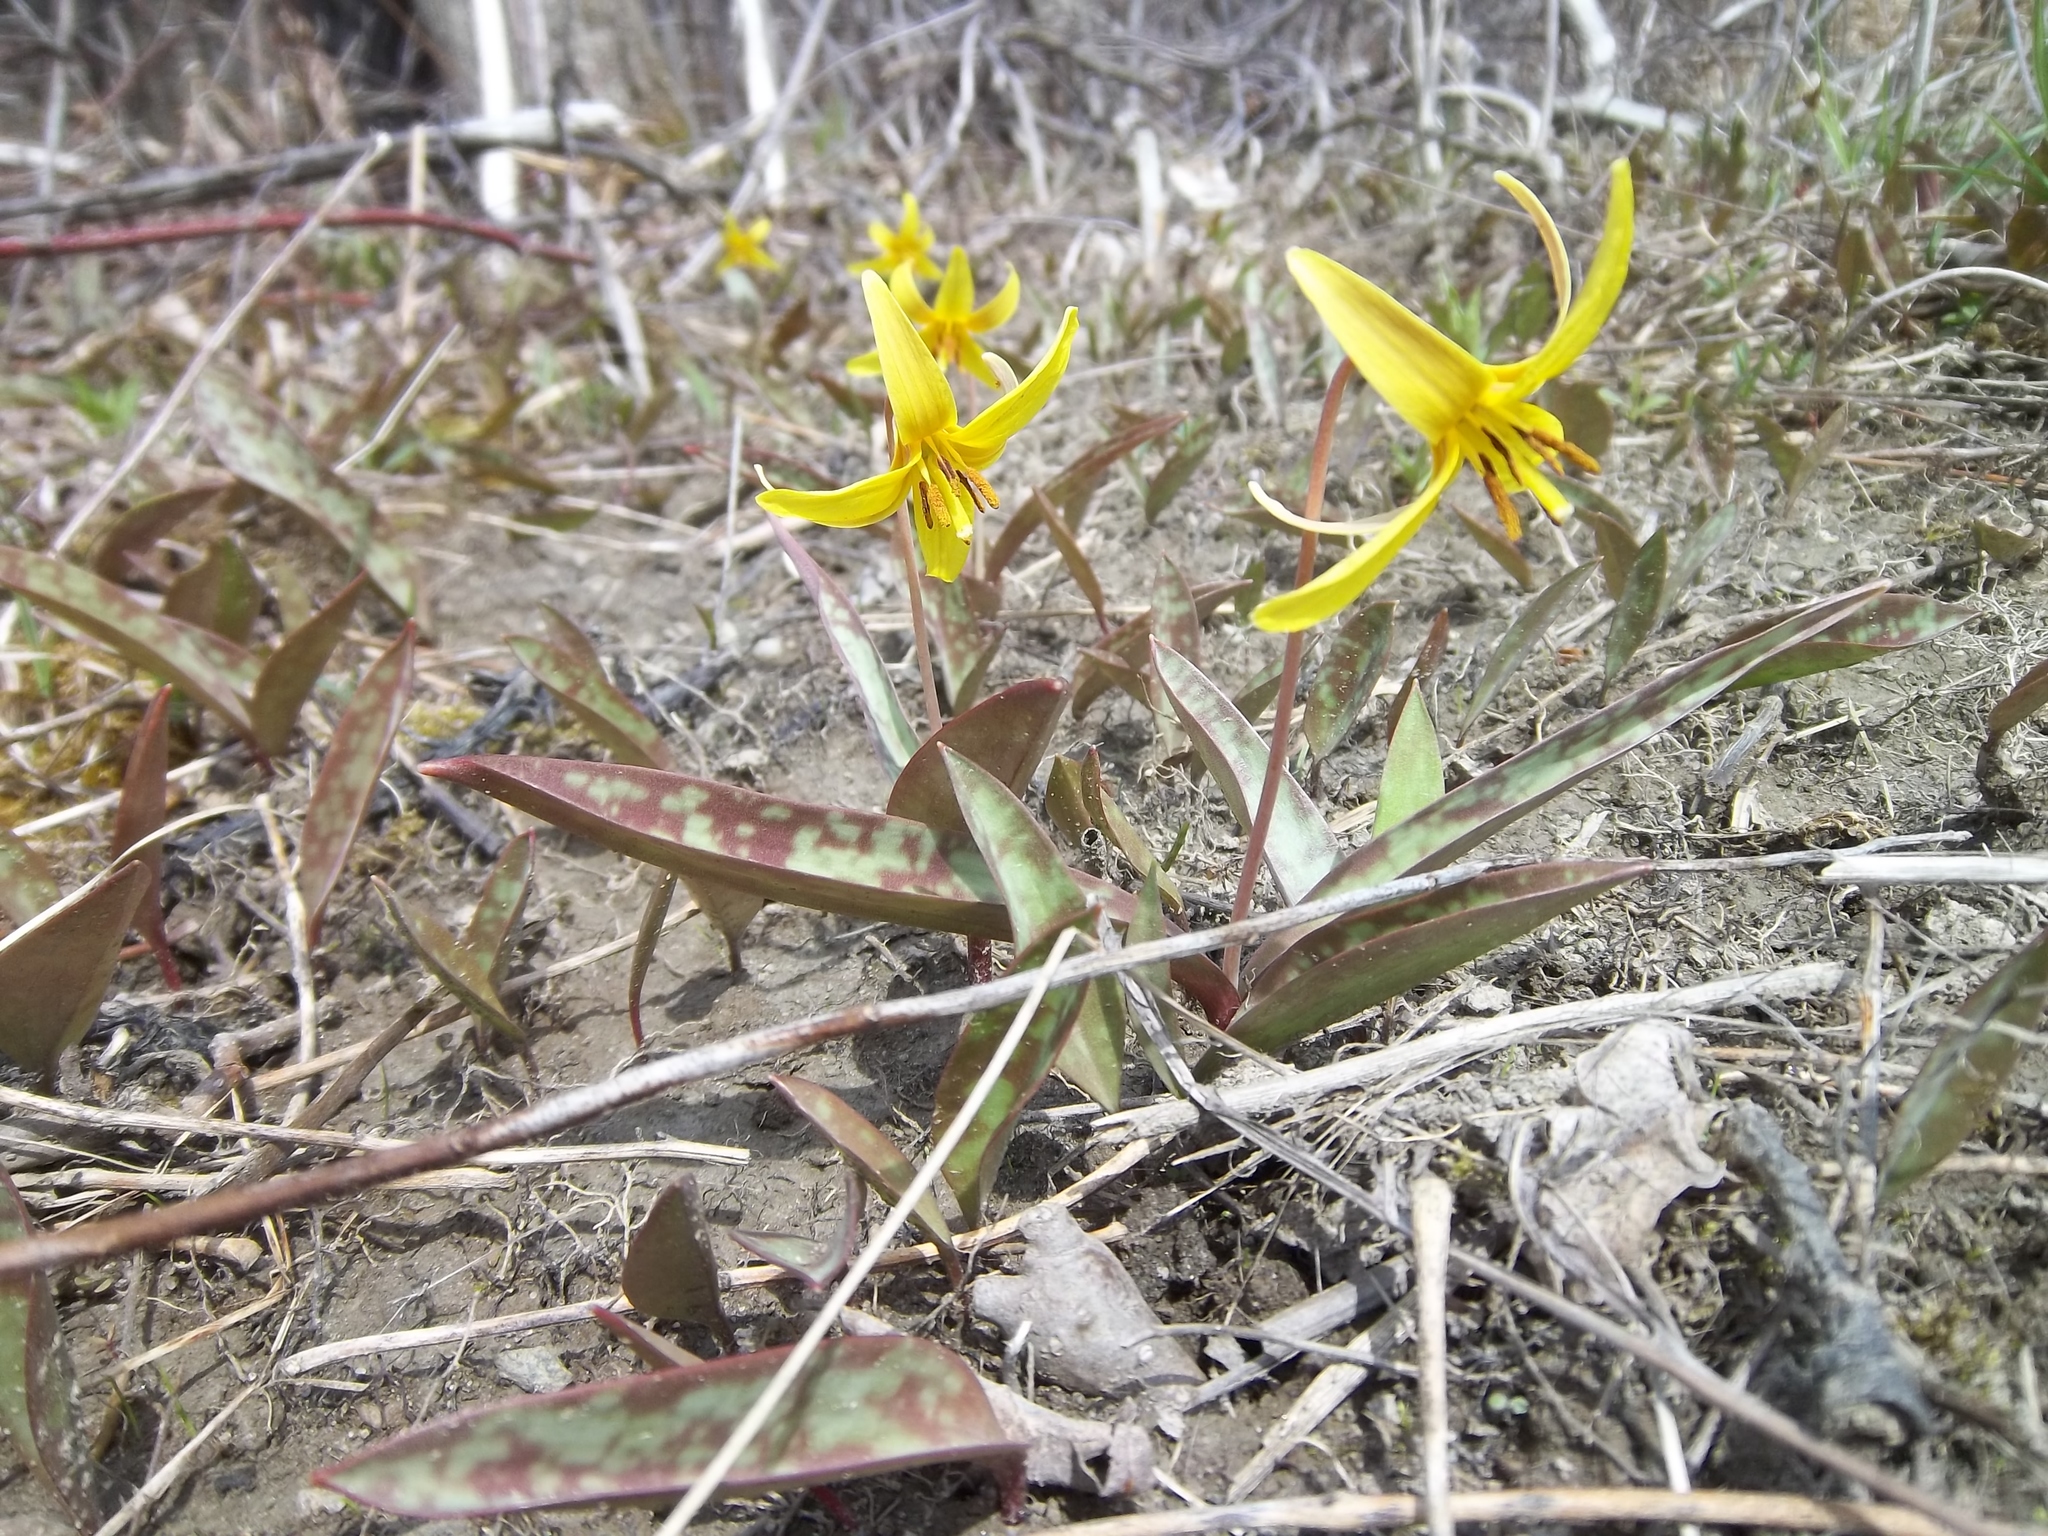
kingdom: Plantae
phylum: Tracheophyta
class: Liliopsida
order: Liliales
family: Liliaceae
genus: Erythronium
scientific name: Erythronium americanum
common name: Yellow adder's-tongue
